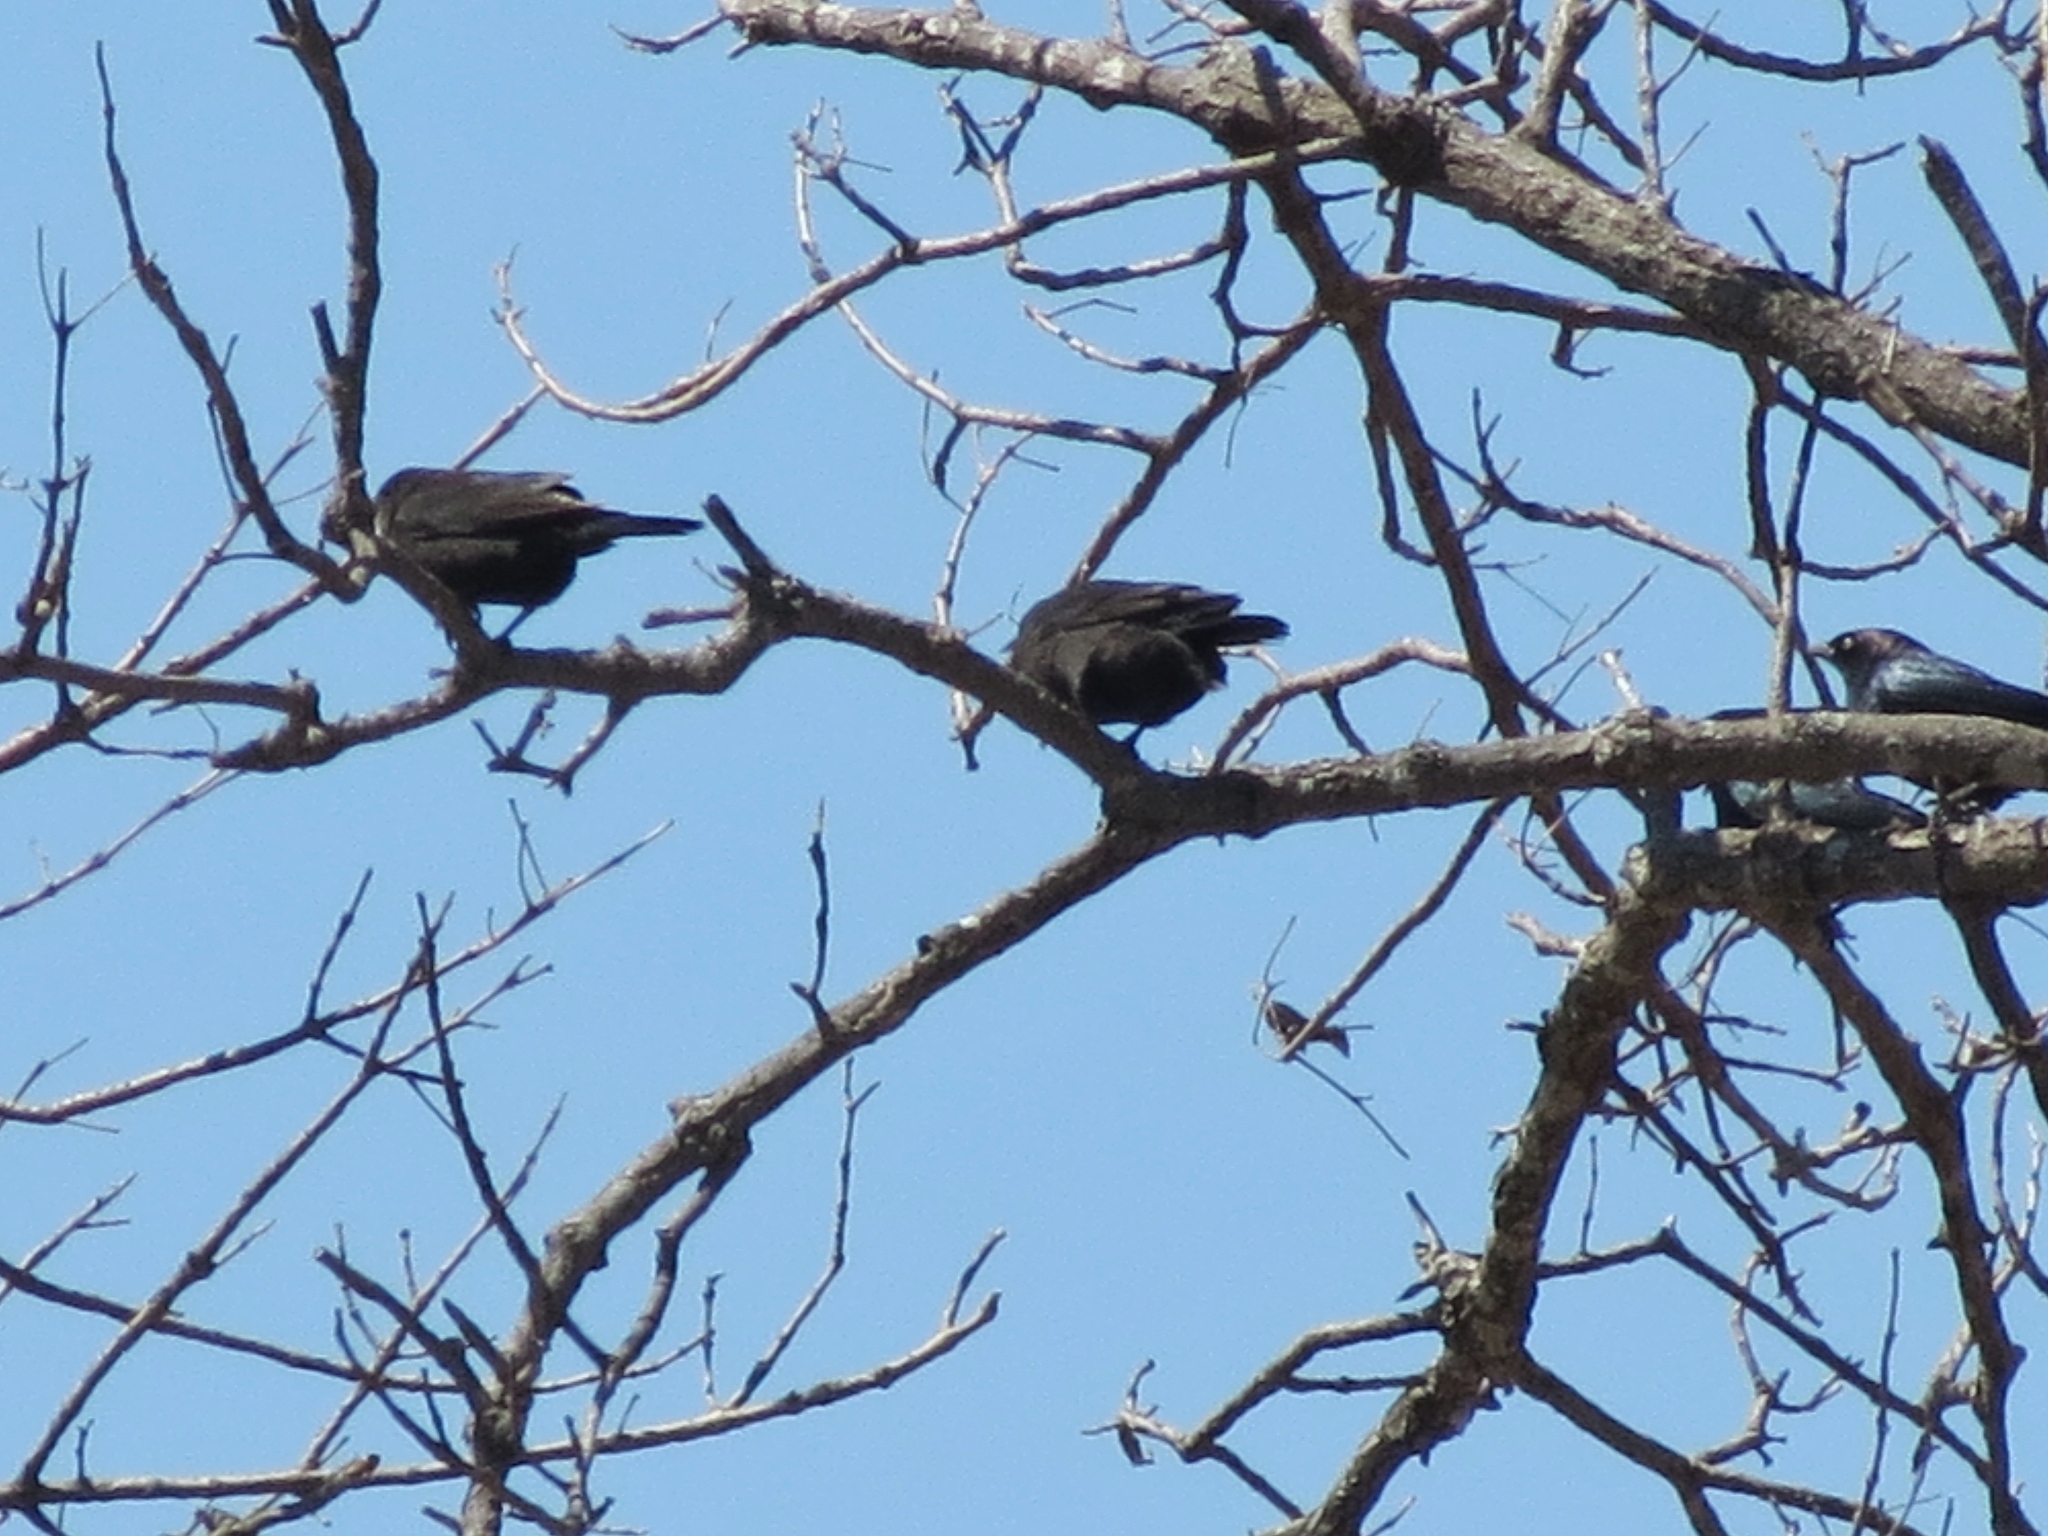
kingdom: Animalia
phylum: Chordata
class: Aves
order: Passeriformes
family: Icteridae
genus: Molothrus
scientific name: Molothrus ater
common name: Brown-headed cowbird
